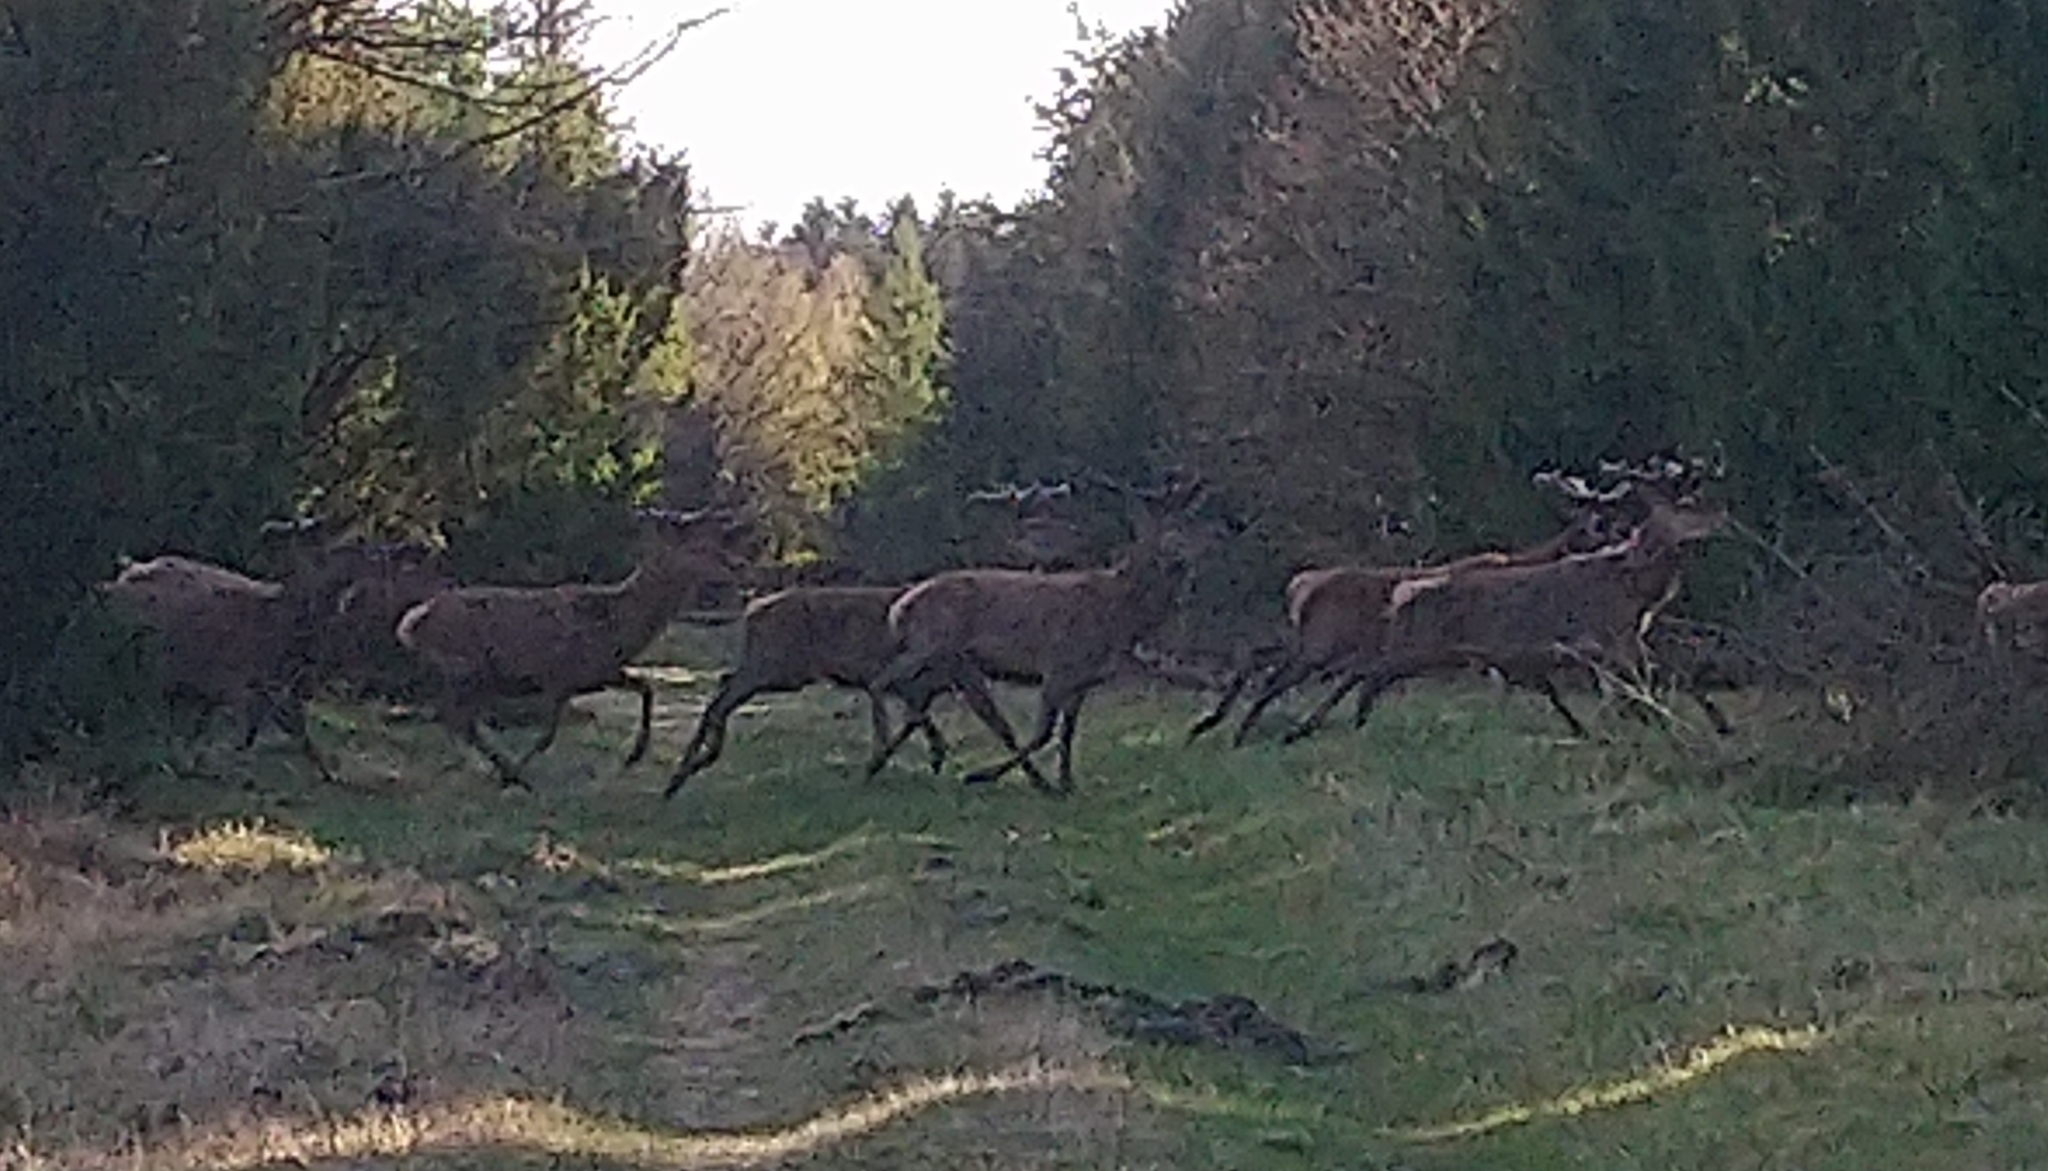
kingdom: Animalia
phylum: Chordata
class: Mammalia
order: Artiodactyla
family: Cervidae
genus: Cervus
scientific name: Cervus elaphus
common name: Red deer
